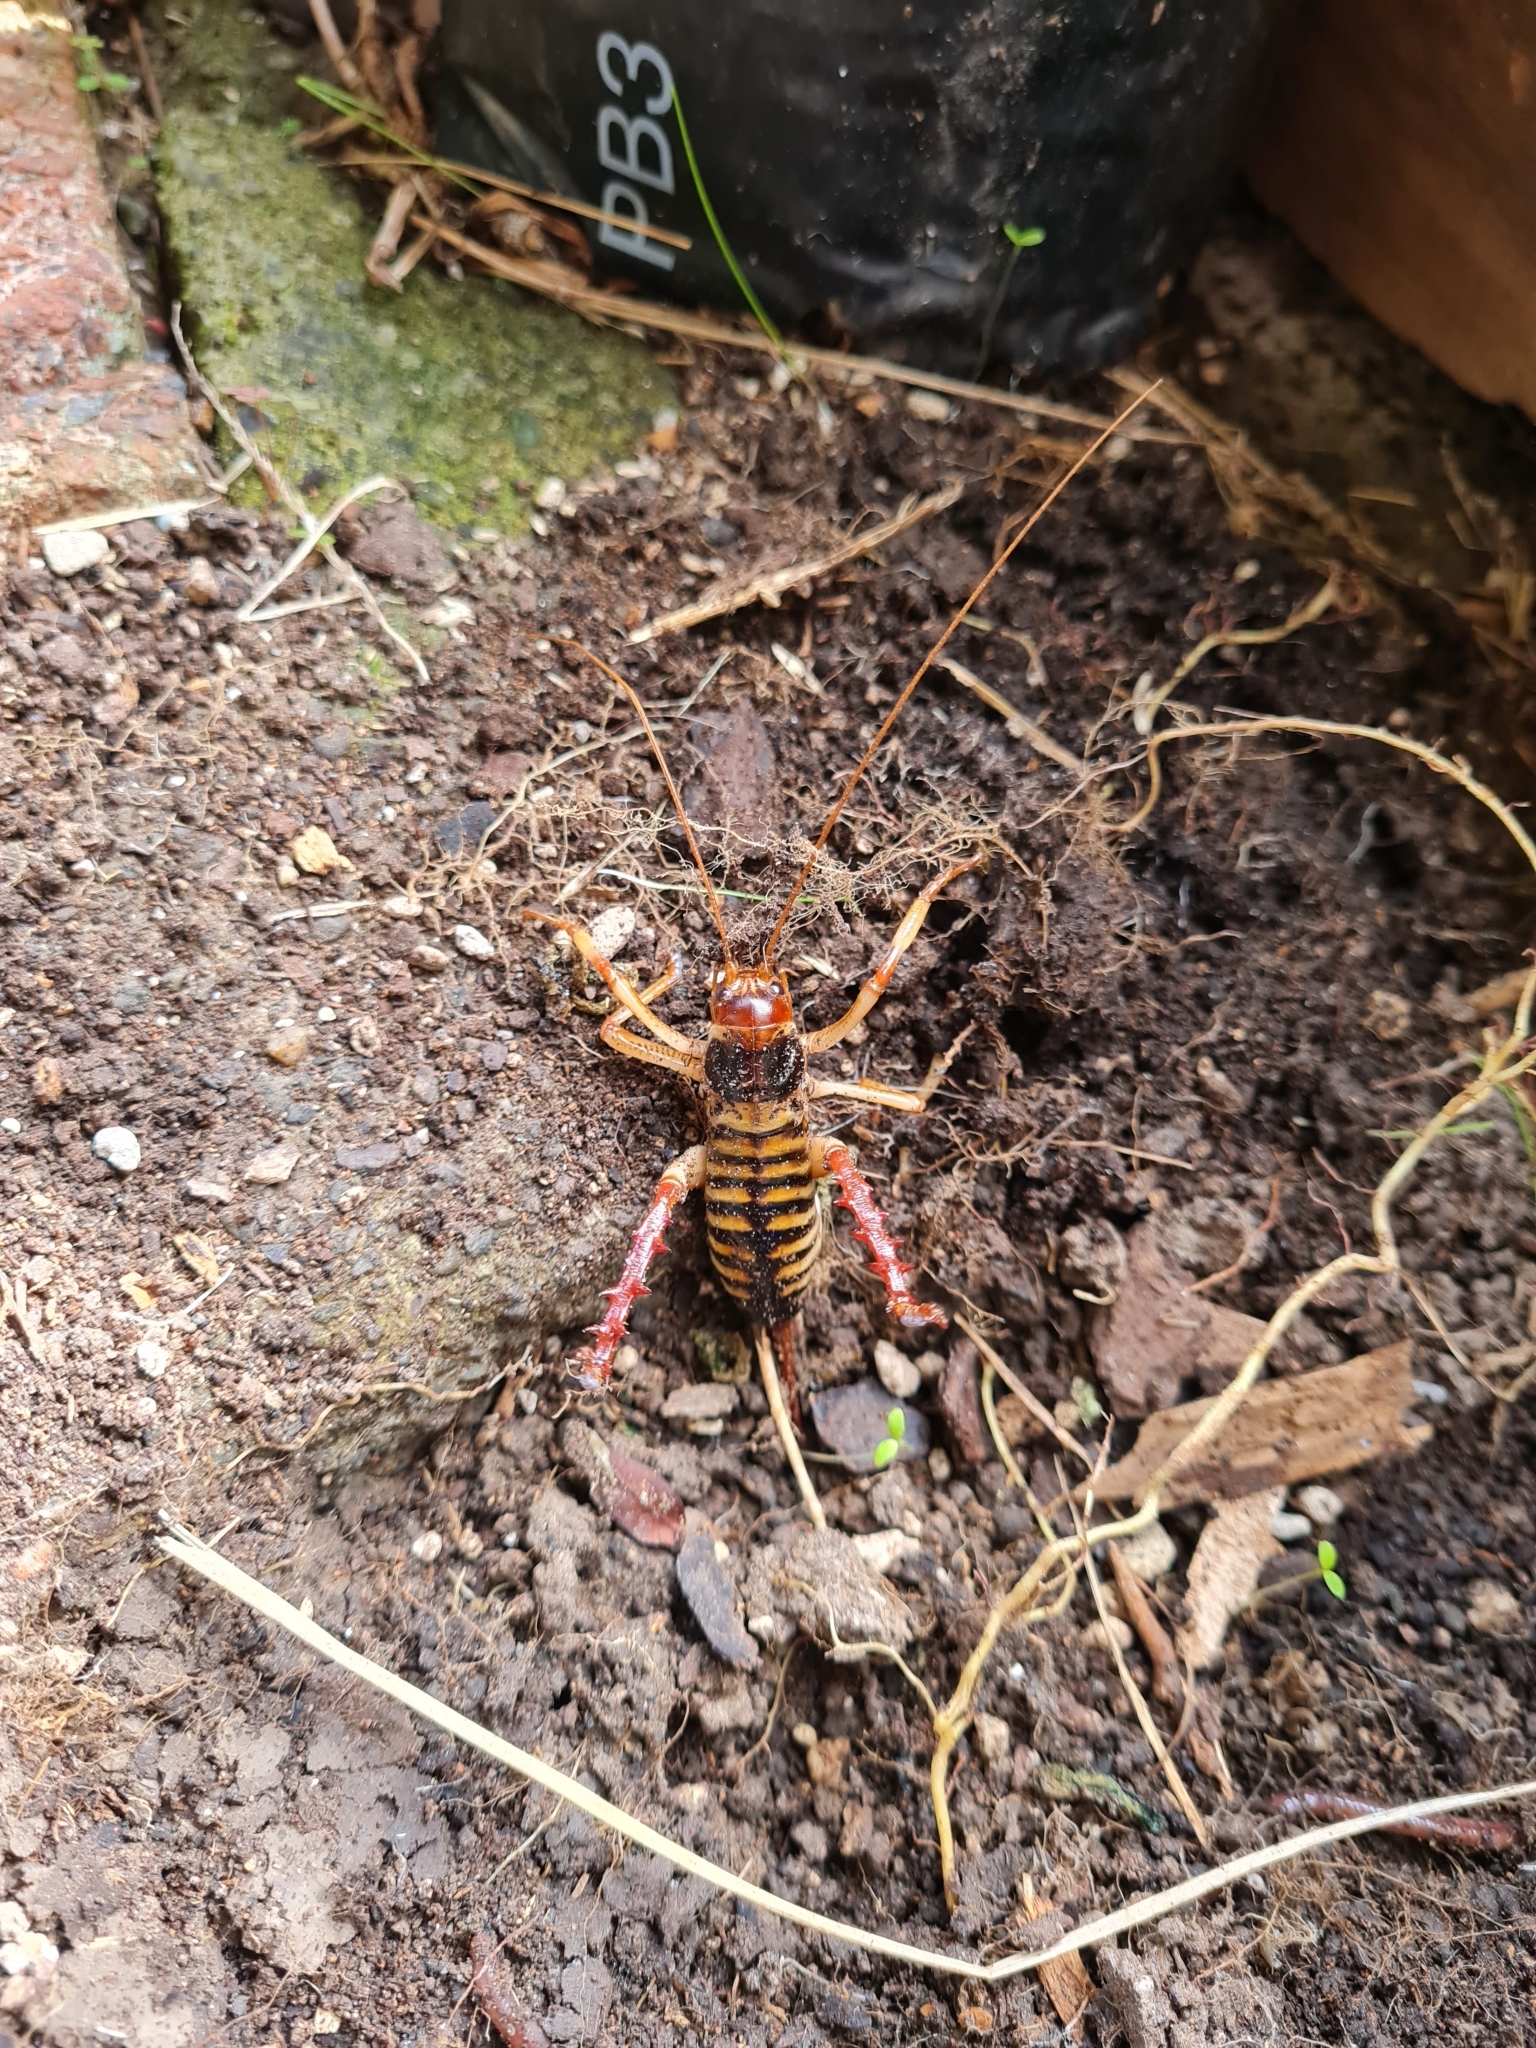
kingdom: Animalia
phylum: Arthropoda
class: Insecta
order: Orthoptera
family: Anostostomatidae
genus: Hemideina
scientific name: Hemideina crassidens
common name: Wellington tree weta
